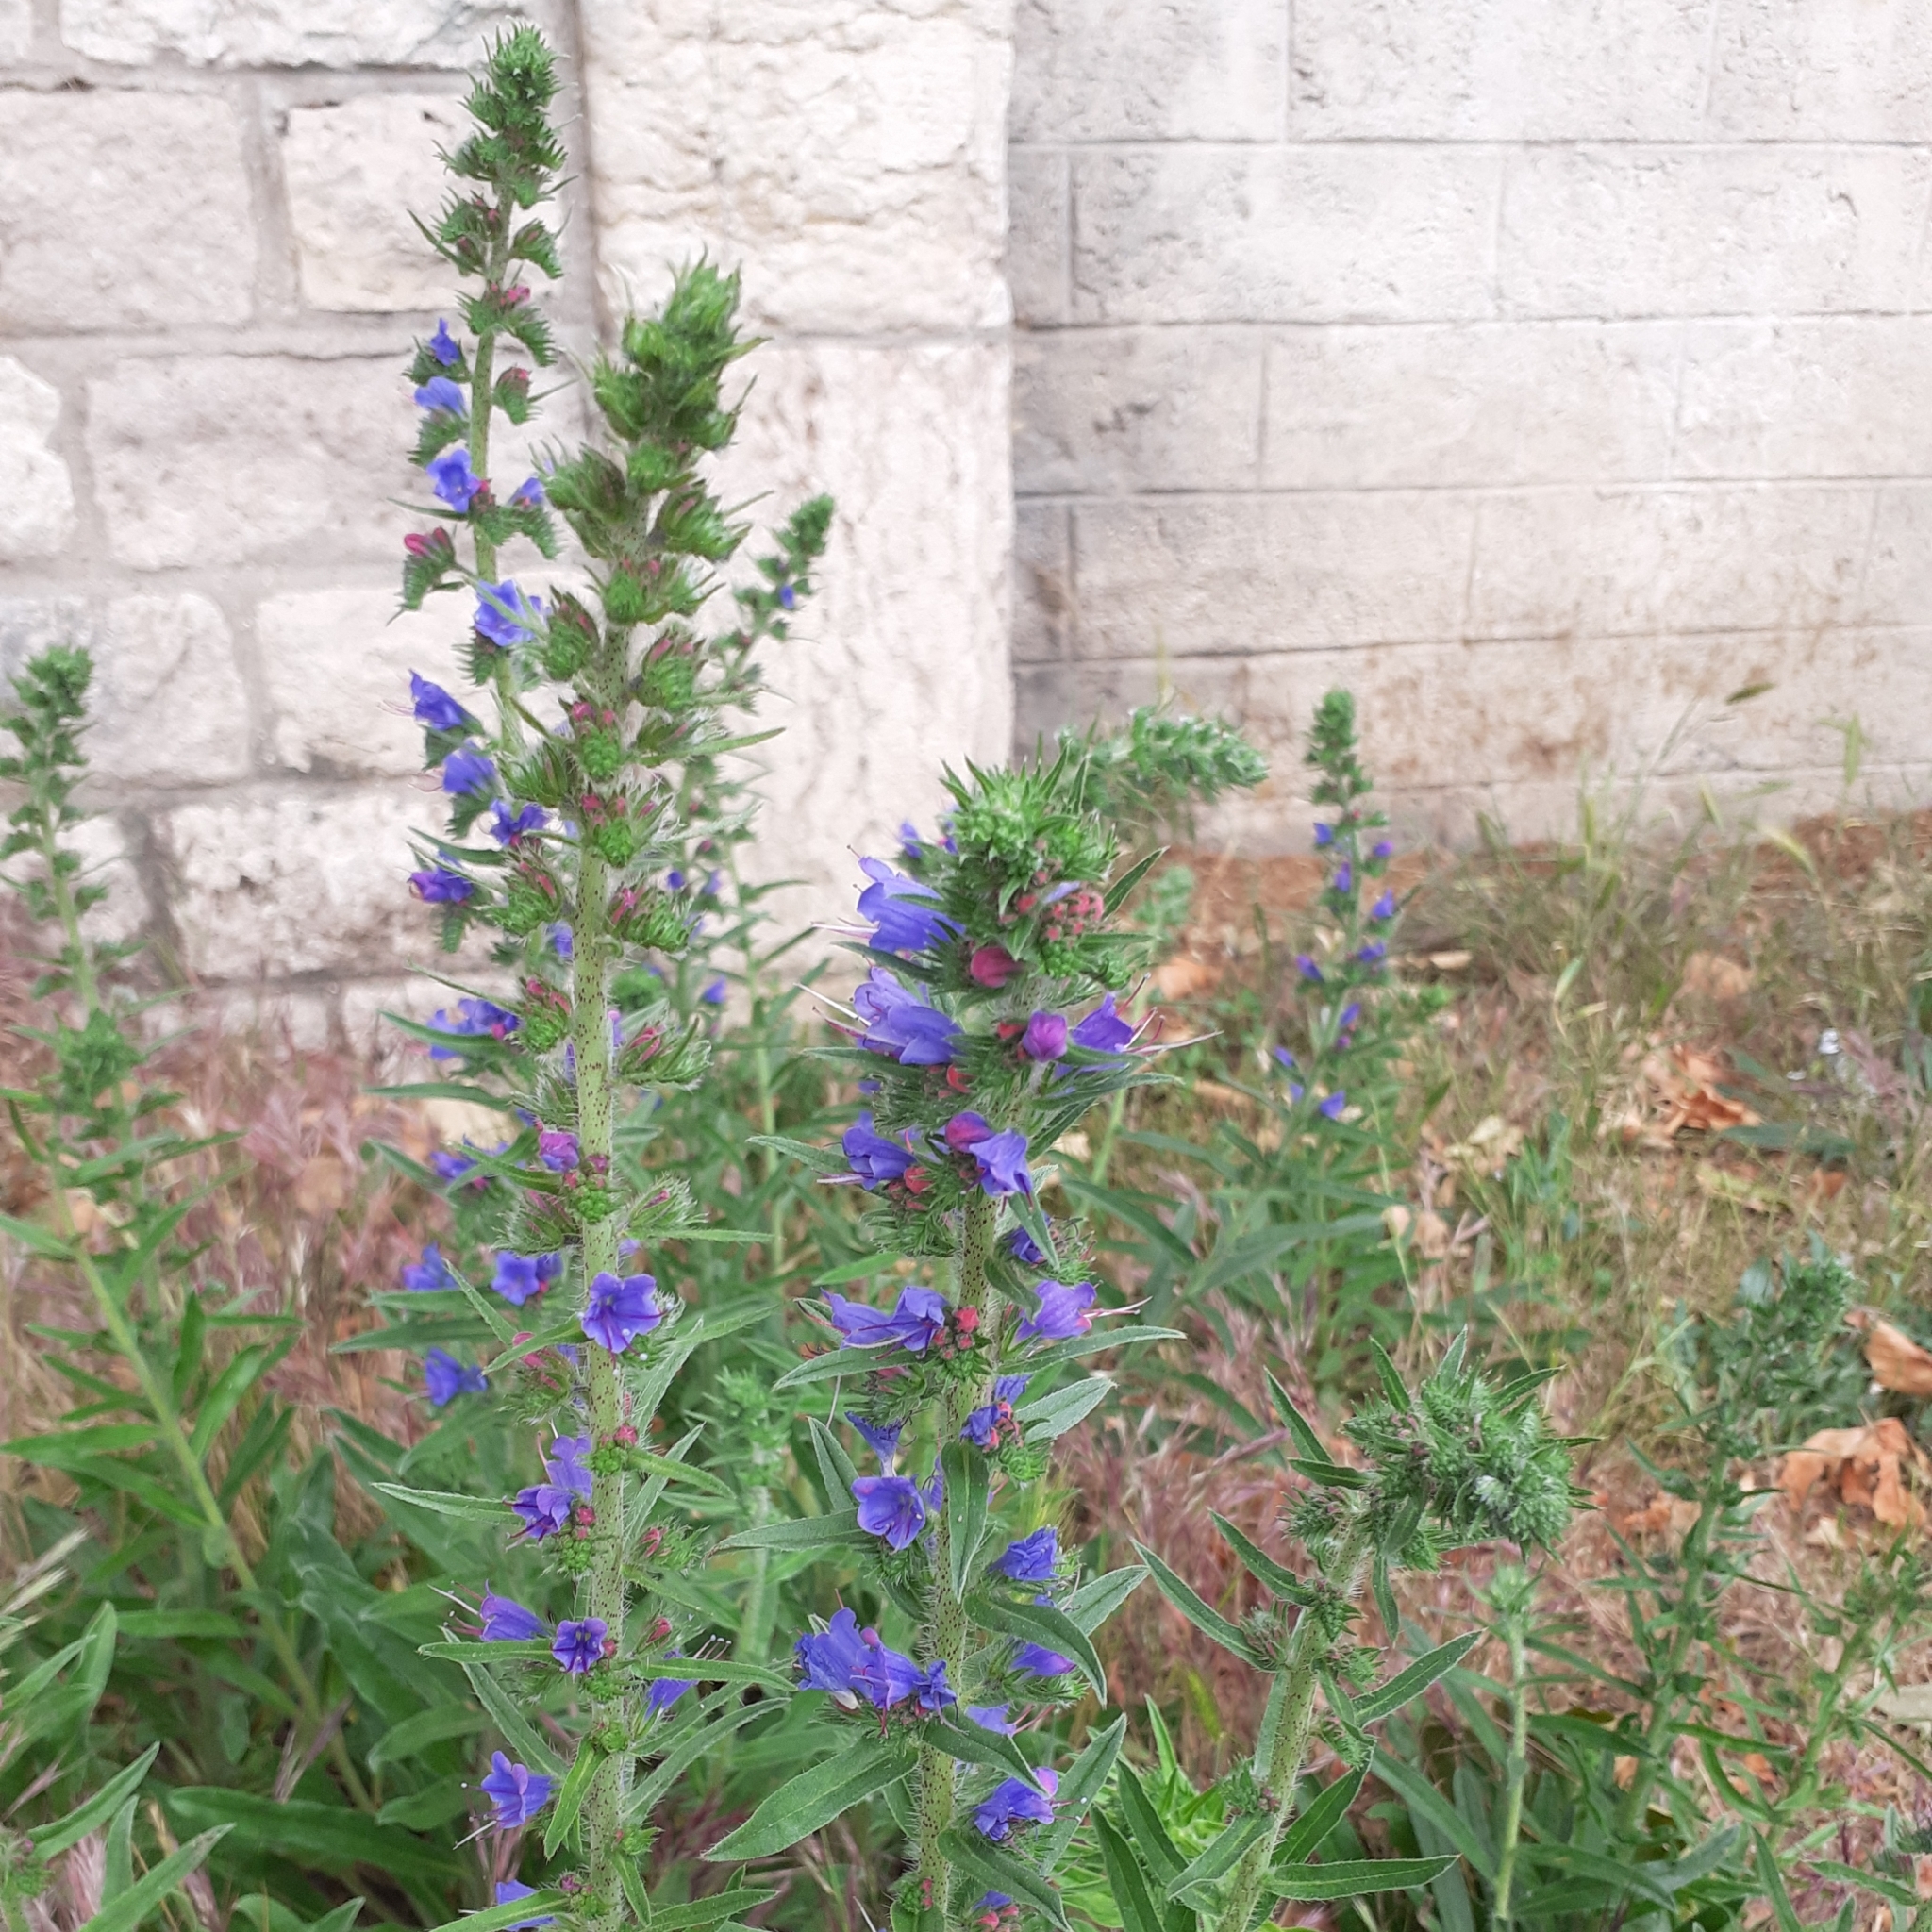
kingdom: Plantae
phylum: Tracheophyta
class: Magnoliopsida
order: Boraginales
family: Boraginaceae
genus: Echium
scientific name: Echium vulgare
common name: Common viper's bugloss
